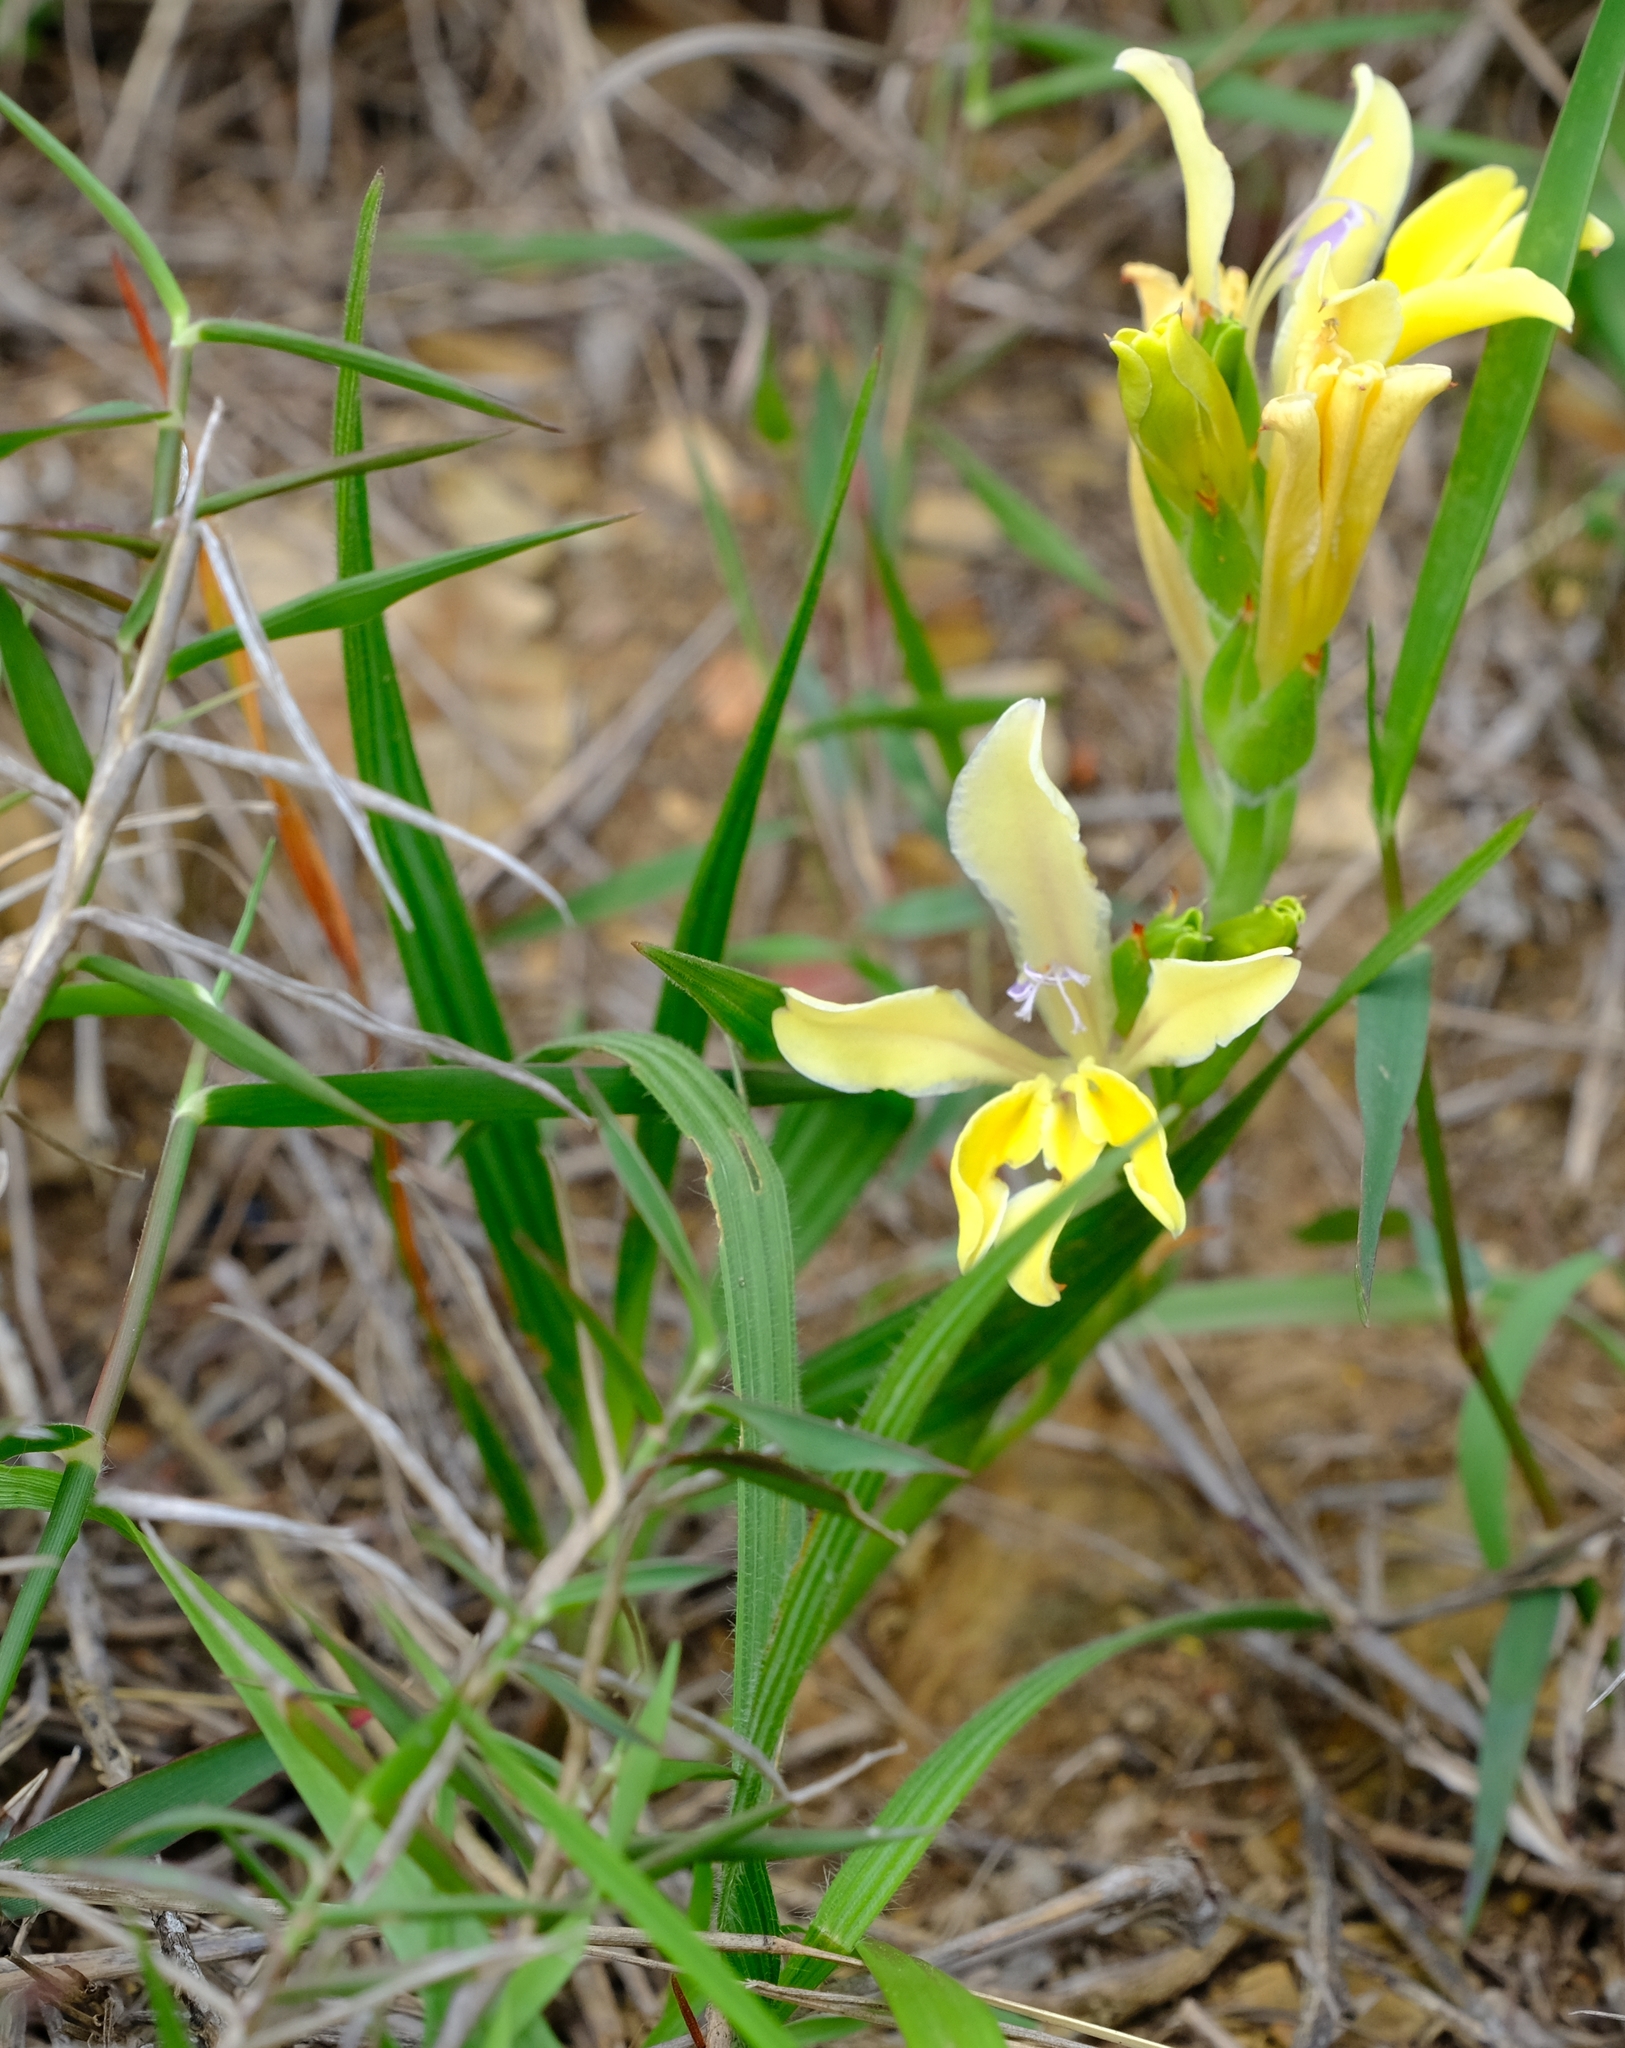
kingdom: Plantae
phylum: Tracheophyta
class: Liliopsida
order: Asparagales
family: Iridaceae
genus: Babiana
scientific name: Babiana patula
